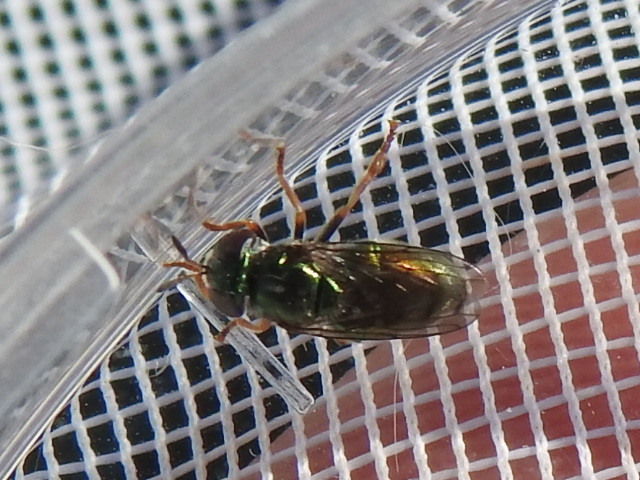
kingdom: Animalia
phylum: Arthropoda
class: Insecta
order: Diptera
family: Syrphidae
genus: Laetodon
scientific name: Laetodon laetus
